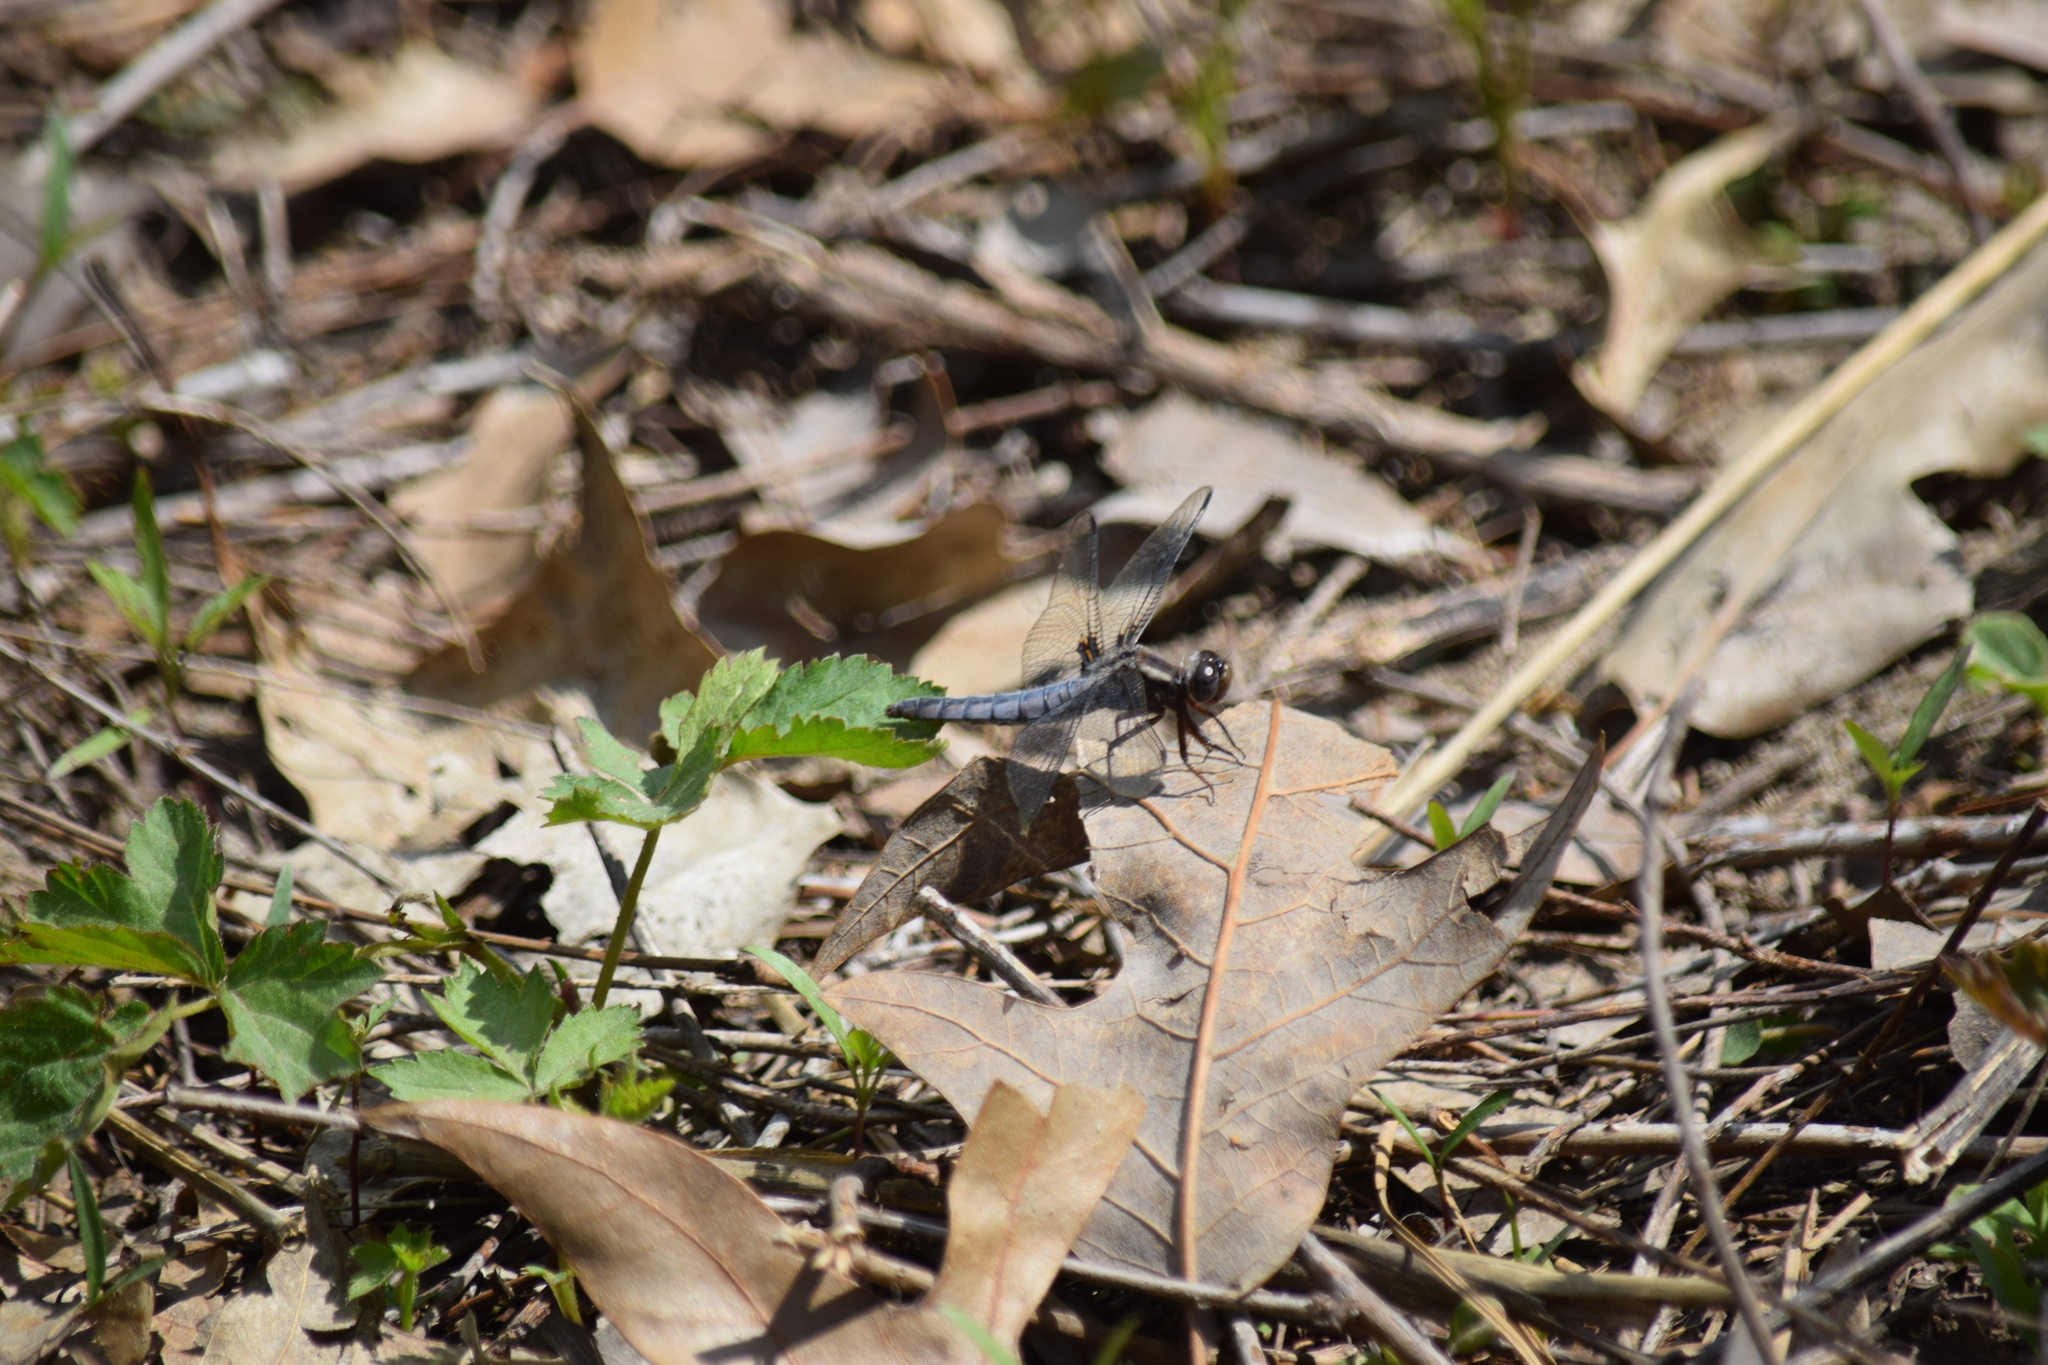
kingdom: Animalia
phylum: Arthropoda
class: Insecta
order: Odonata
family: Libellulidae
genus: Ladona
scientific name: Ladona deplanata
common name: Blue corporal
